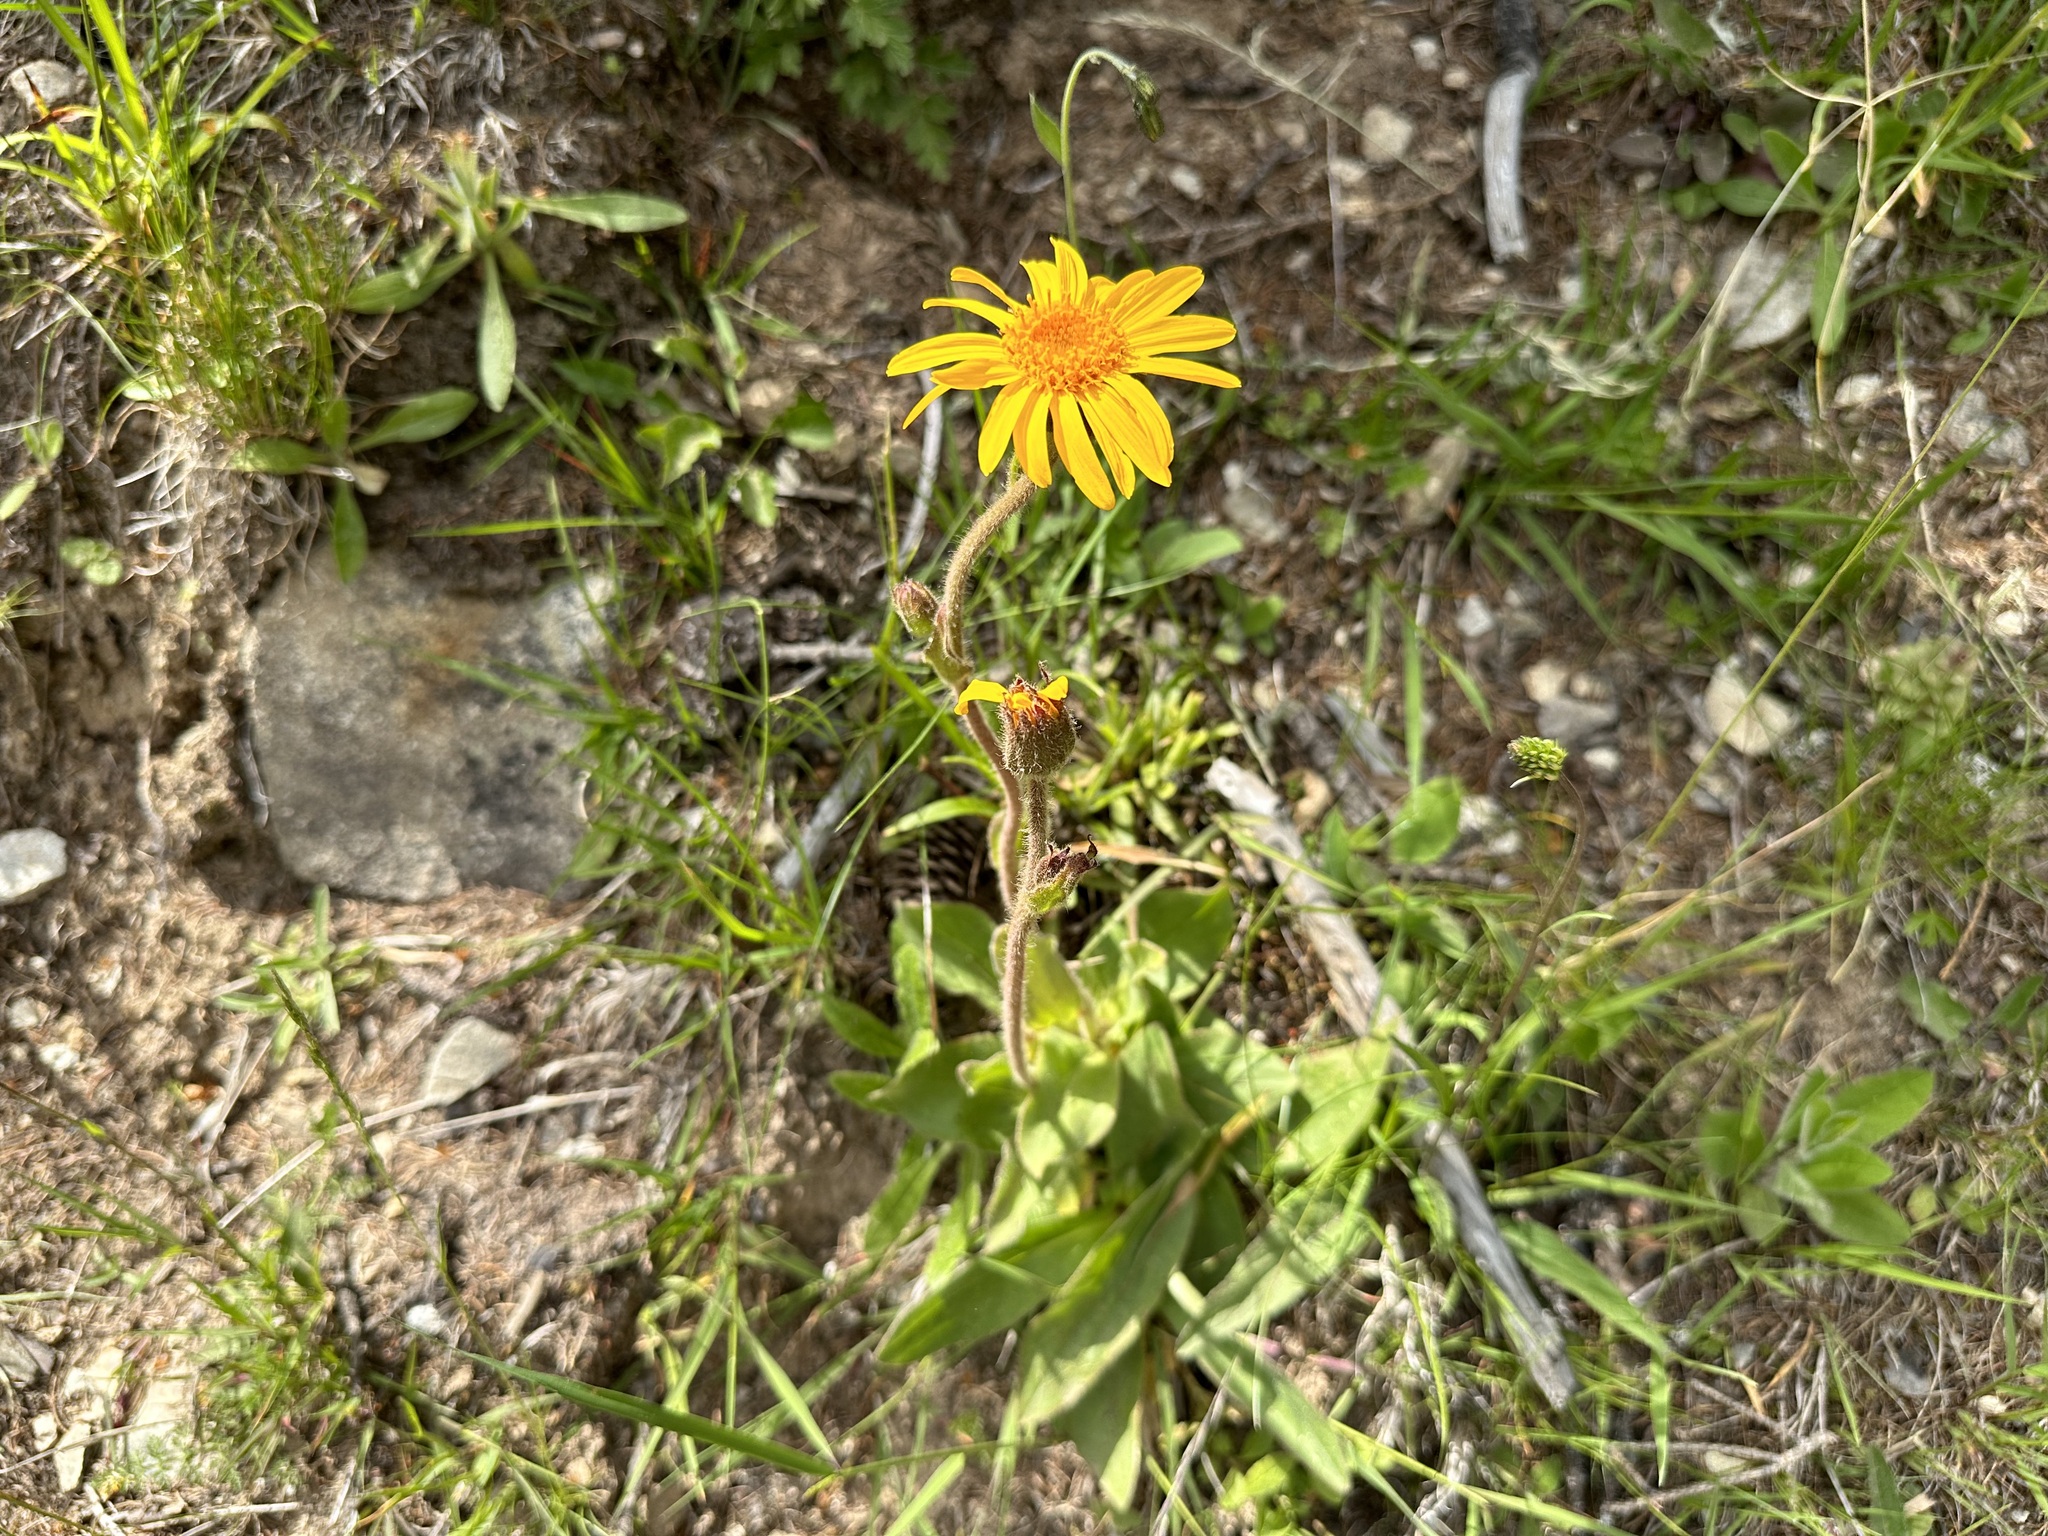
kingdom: Plantae
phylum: Tracheophyta
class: Magnoliopsida
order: Asterales
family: Asteraceae
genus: Arnica
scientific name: Arnica montana
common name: Leopard's bane
